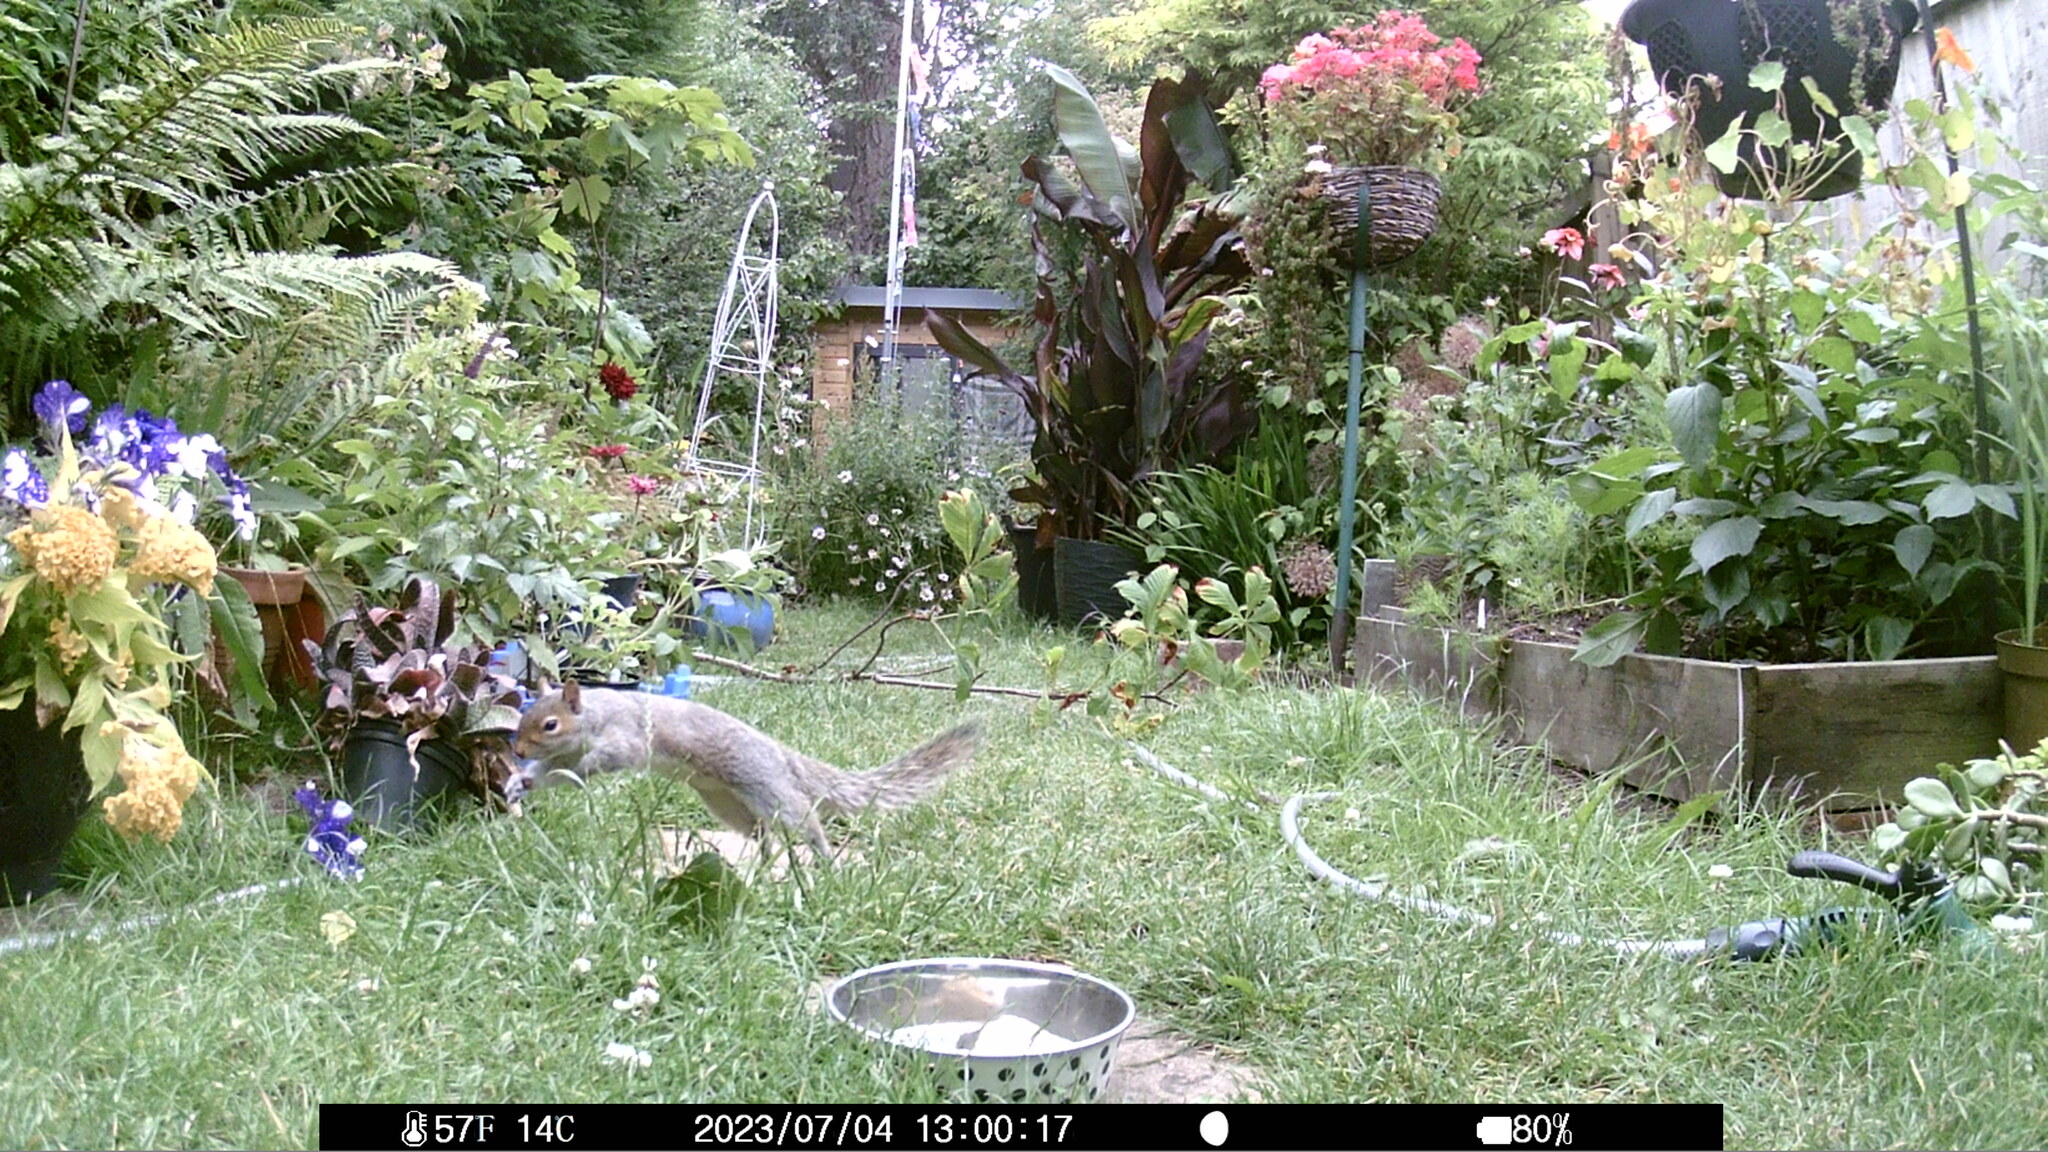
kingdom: Animalia
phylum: Chordata
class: Mammalia
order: Rodentia
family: Sciuridae
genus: Sciurus
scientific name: Sciurus carolinensis
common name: Eastern gray squirrel
